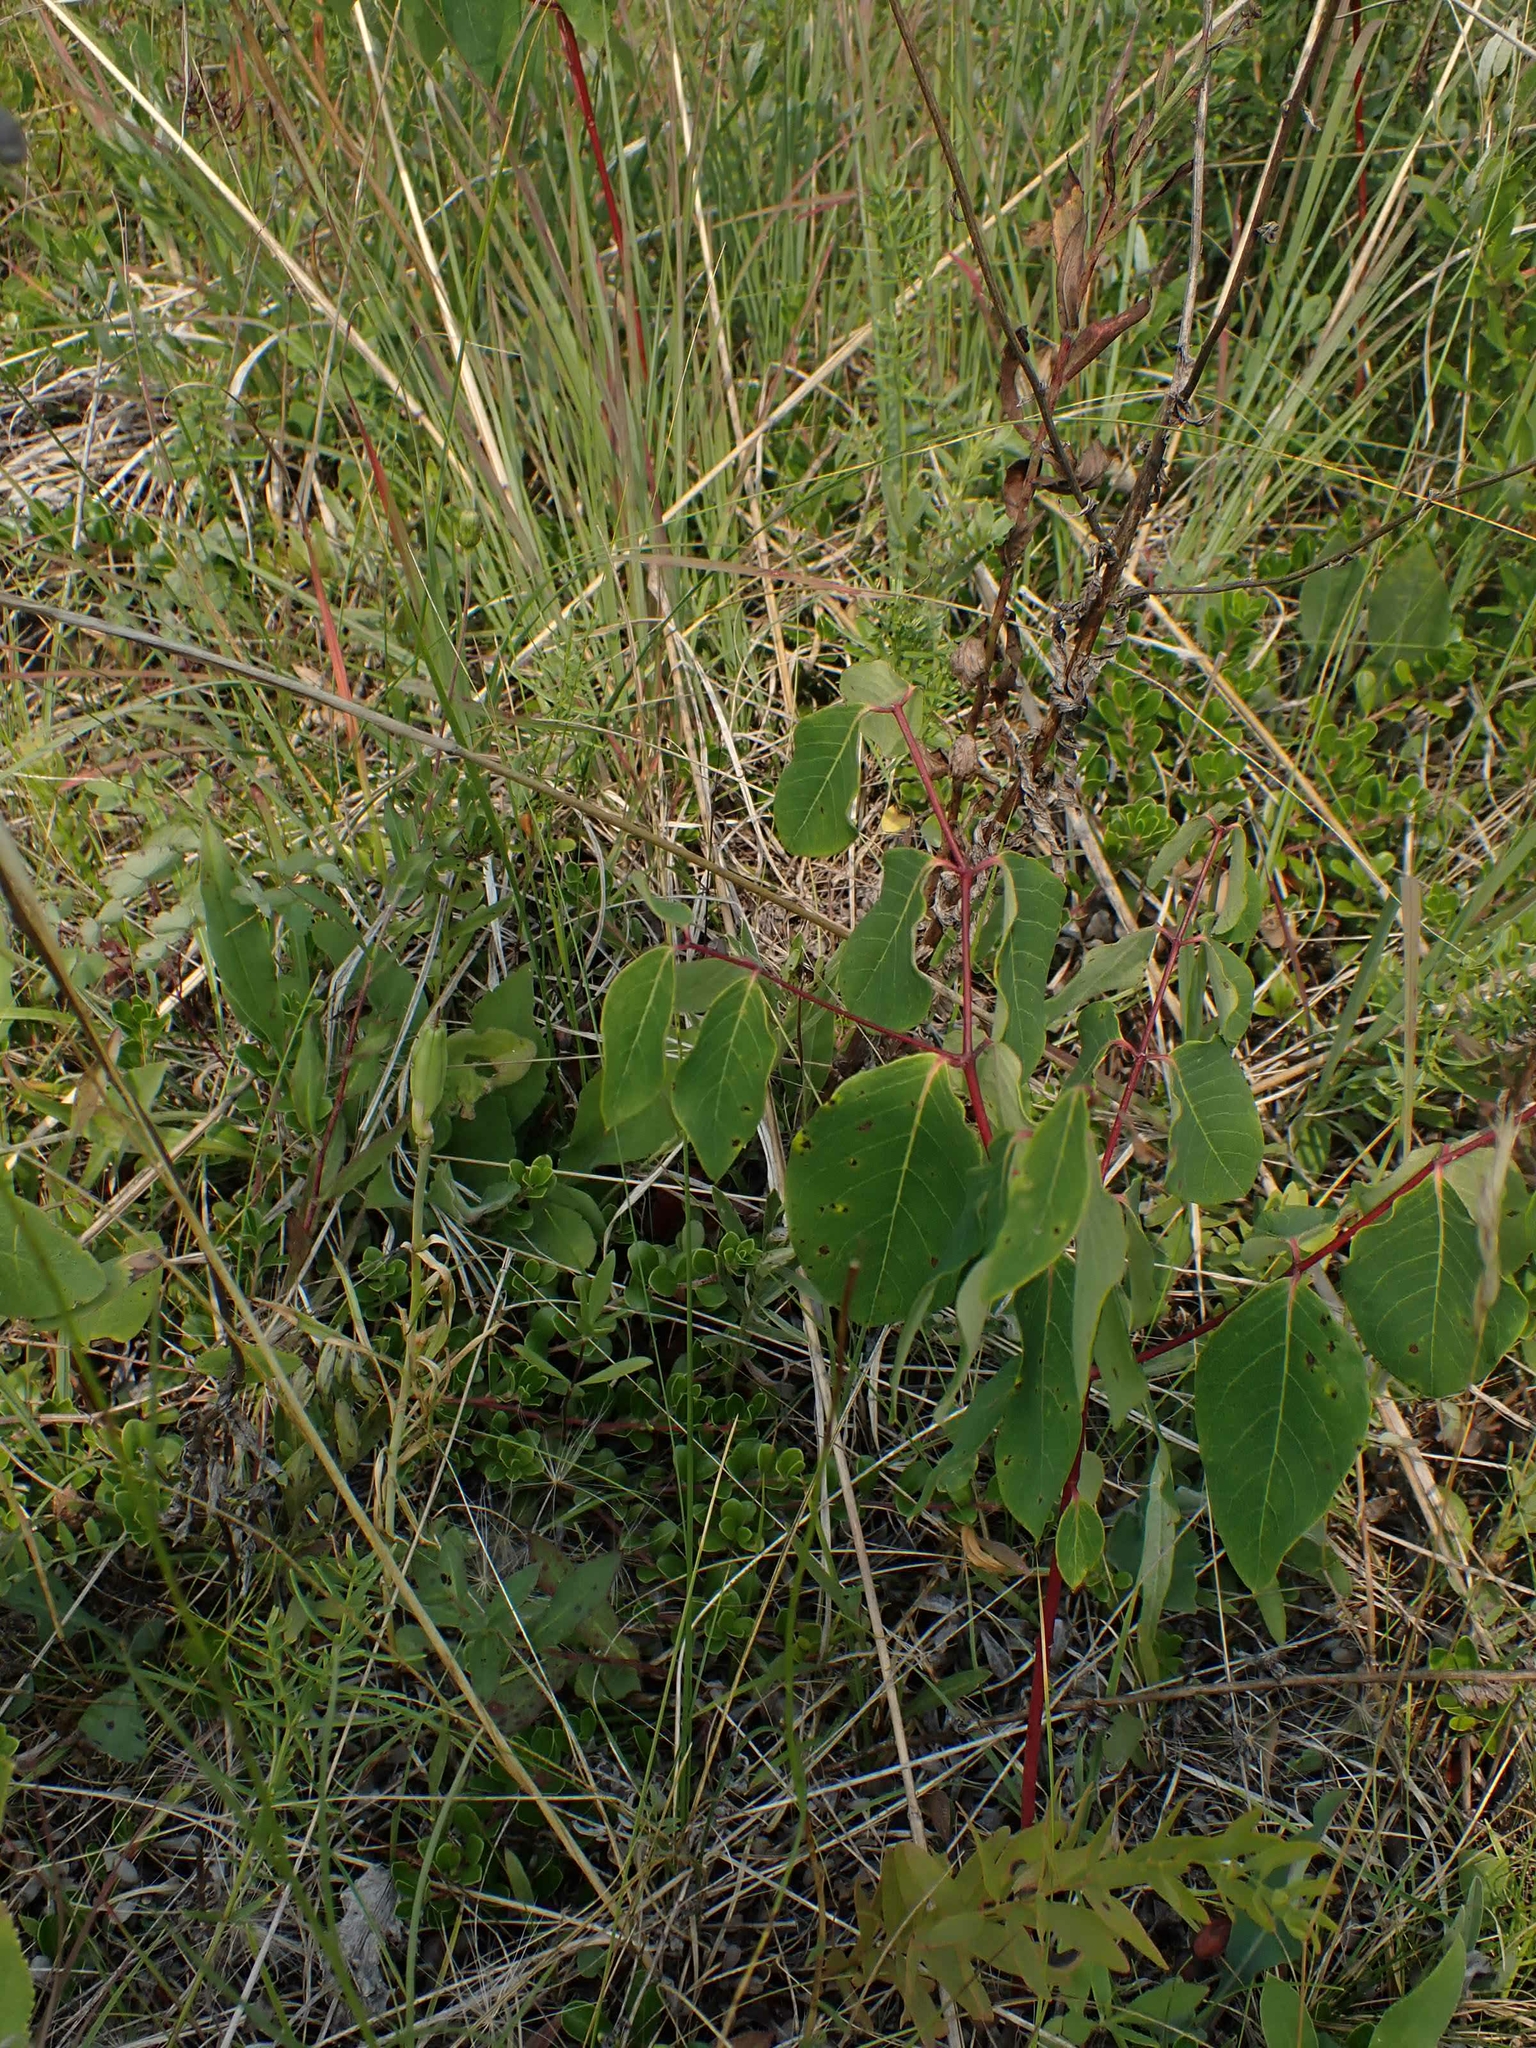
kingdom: Plantae
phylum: Tracheophyta
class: Magnoliopsida
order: Gentianales
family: Apocynaceae
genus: Apocynum
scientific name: Apocynum androsaemifolium
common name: Spreading dogbane
